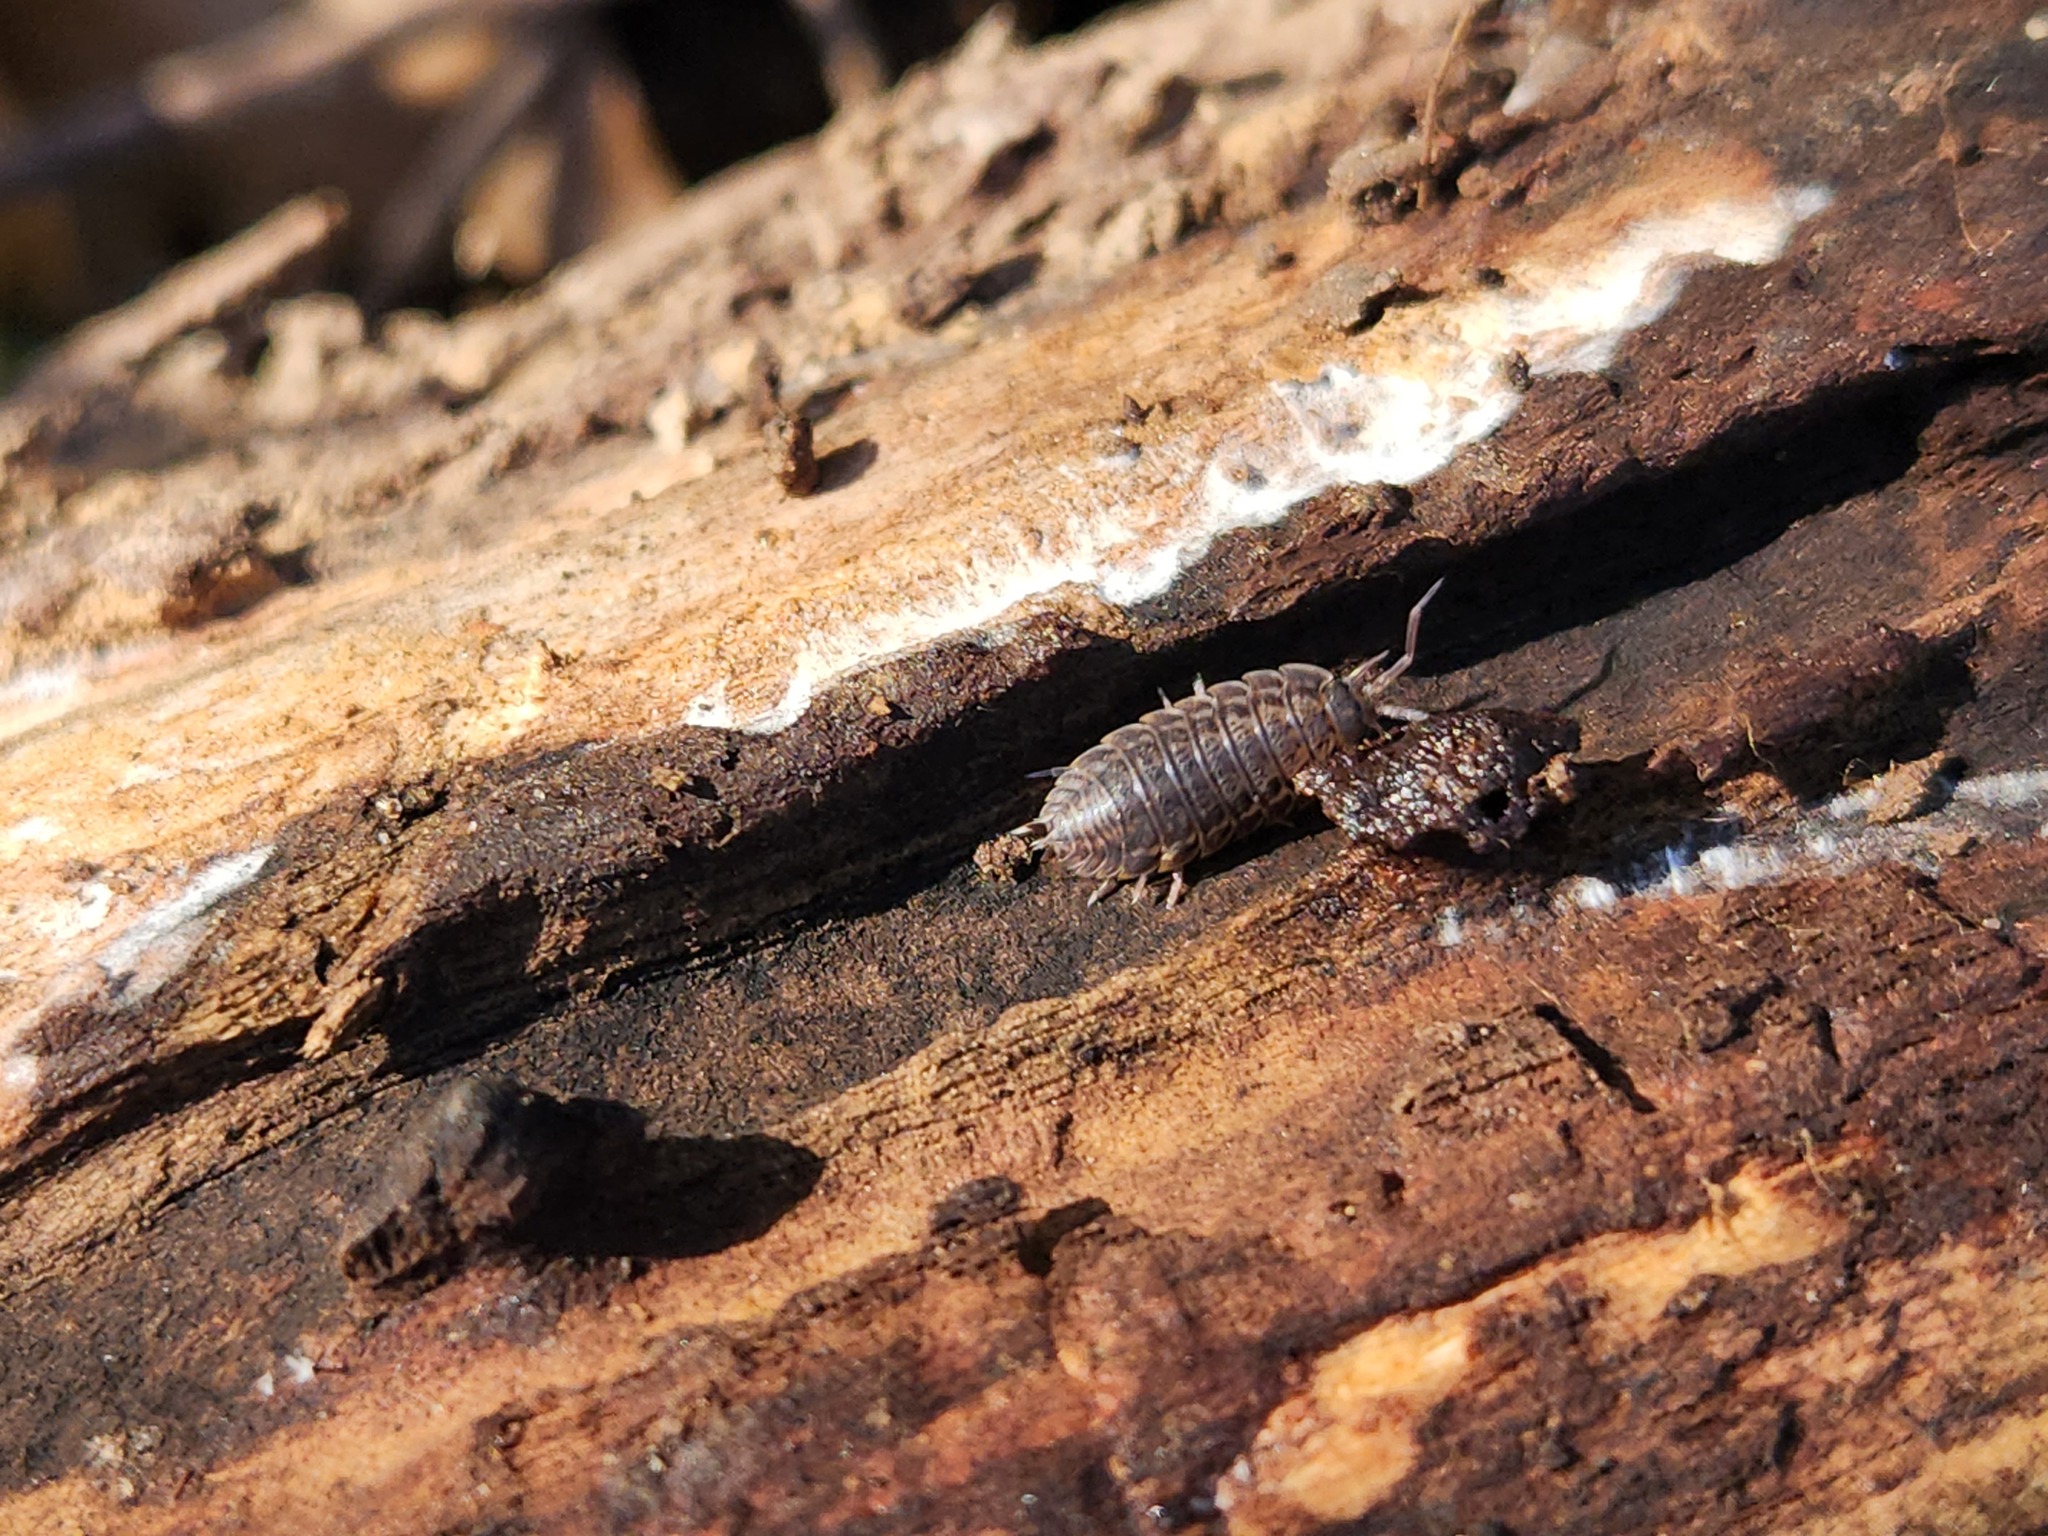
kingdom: Animalia
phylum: Arthropoda
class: Malacostraca
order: Isopoda
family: Trachelipodidae
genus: Trachelipus
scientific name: Trachelipus rathkii
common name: Isopod
